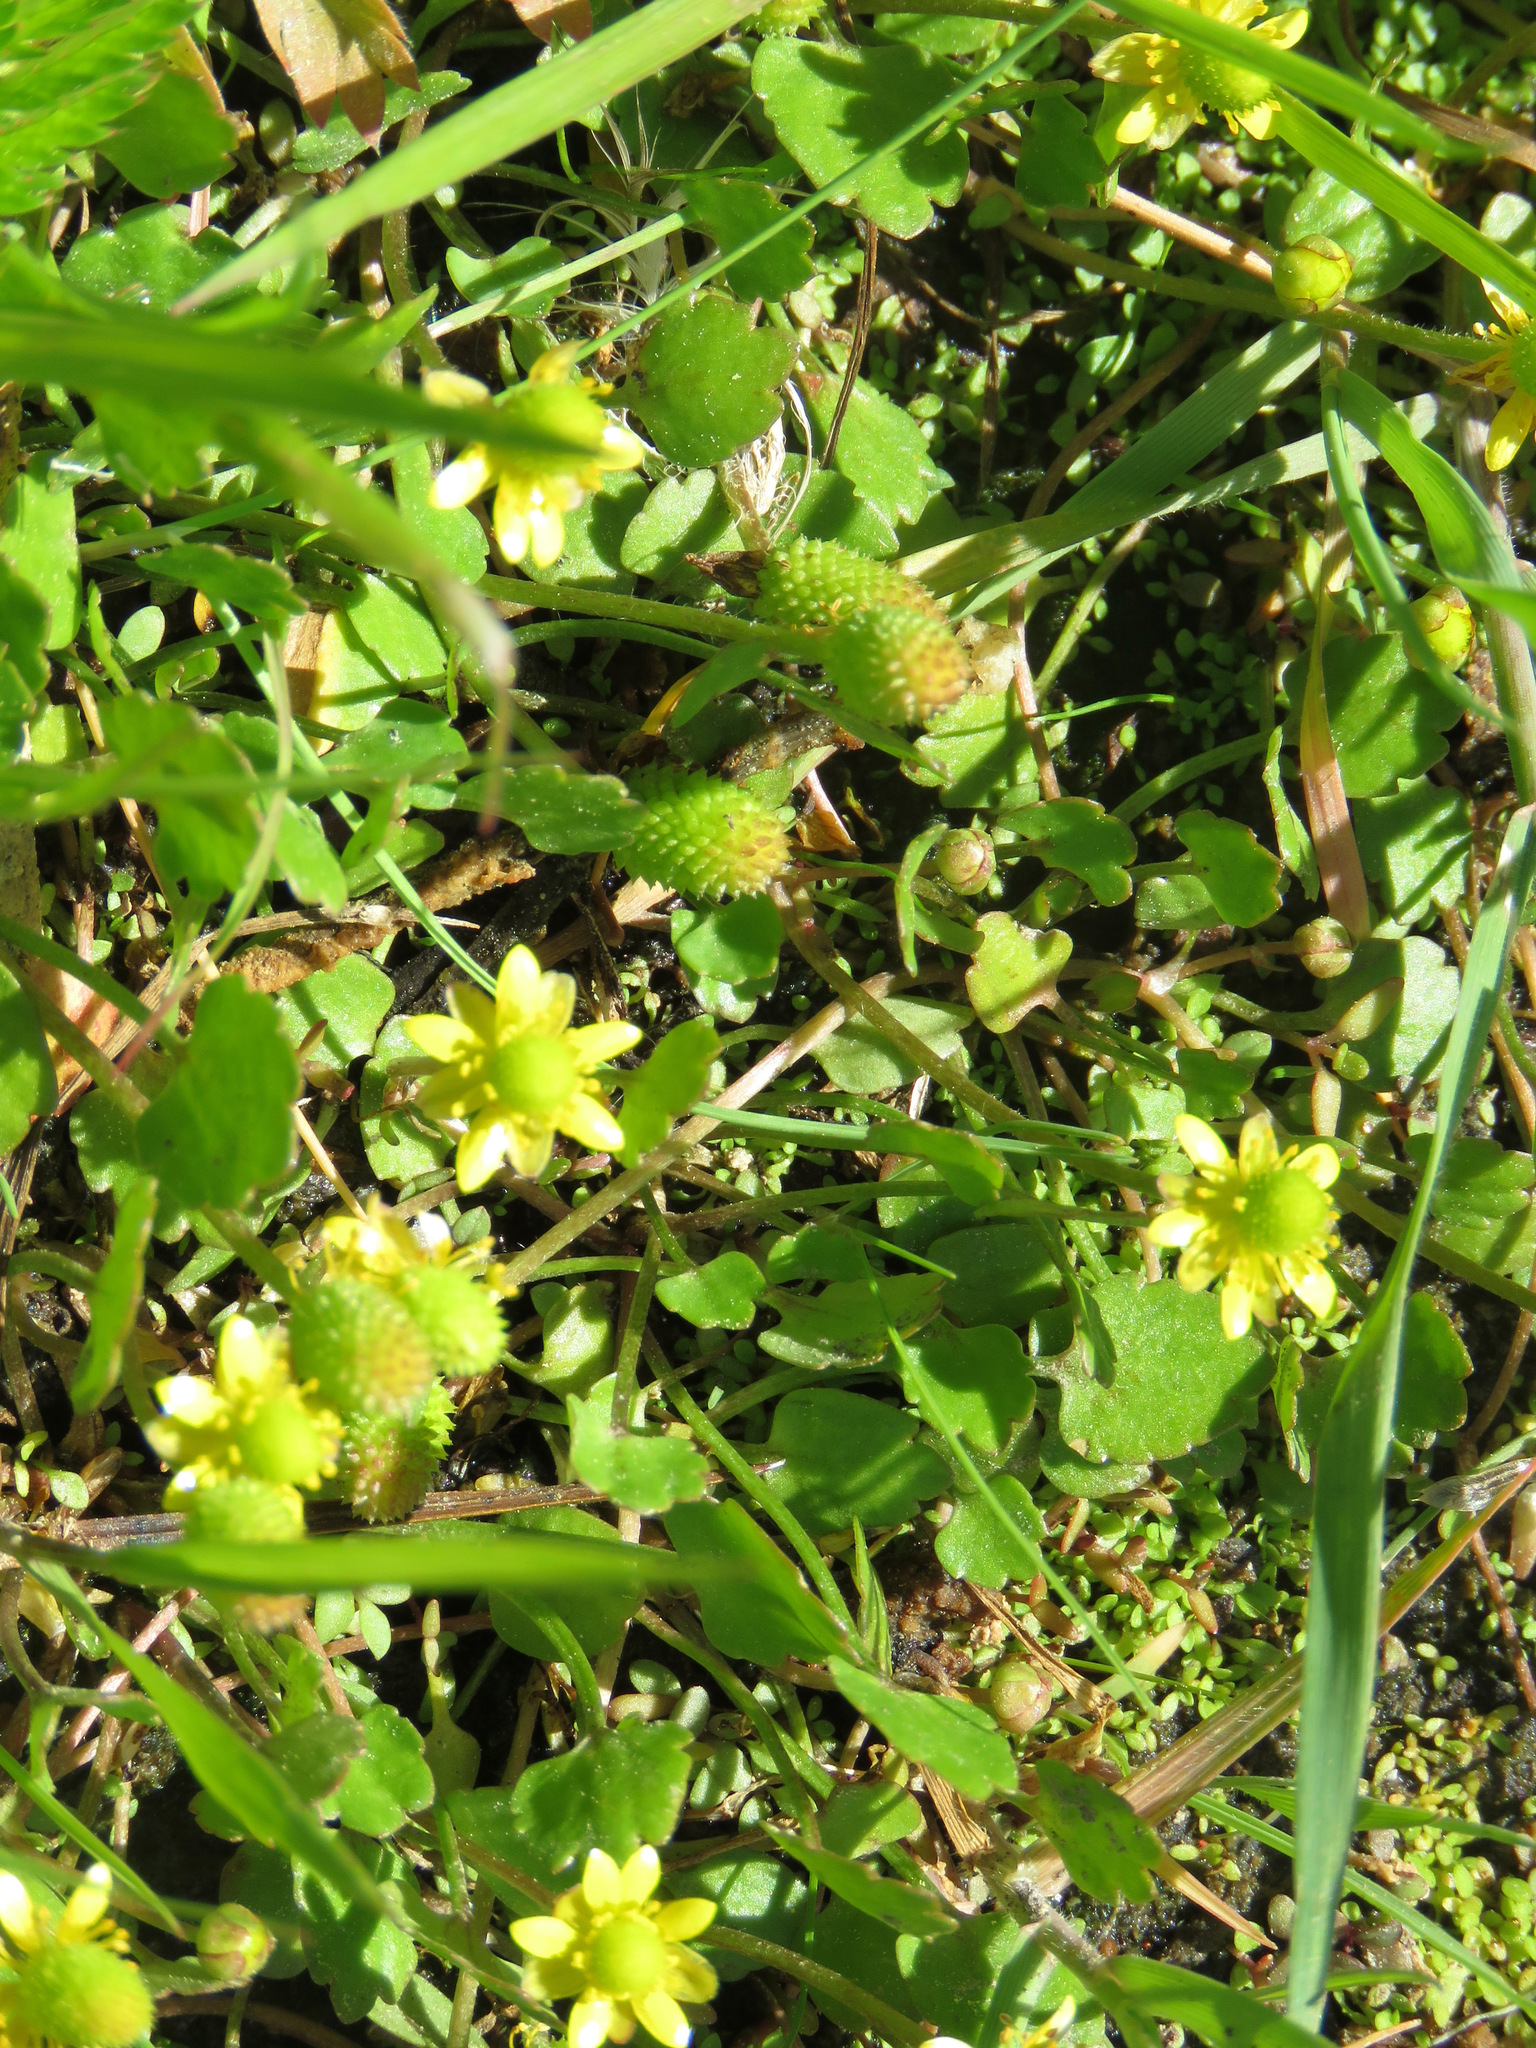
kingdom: Plantae
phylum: Tracheophyta
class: Magnoliopsida
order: Ranunculales
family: Ranunculaceae
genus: Halerpestes
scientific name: Halerpestes cymbalaria
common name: Seaside crowfoot
